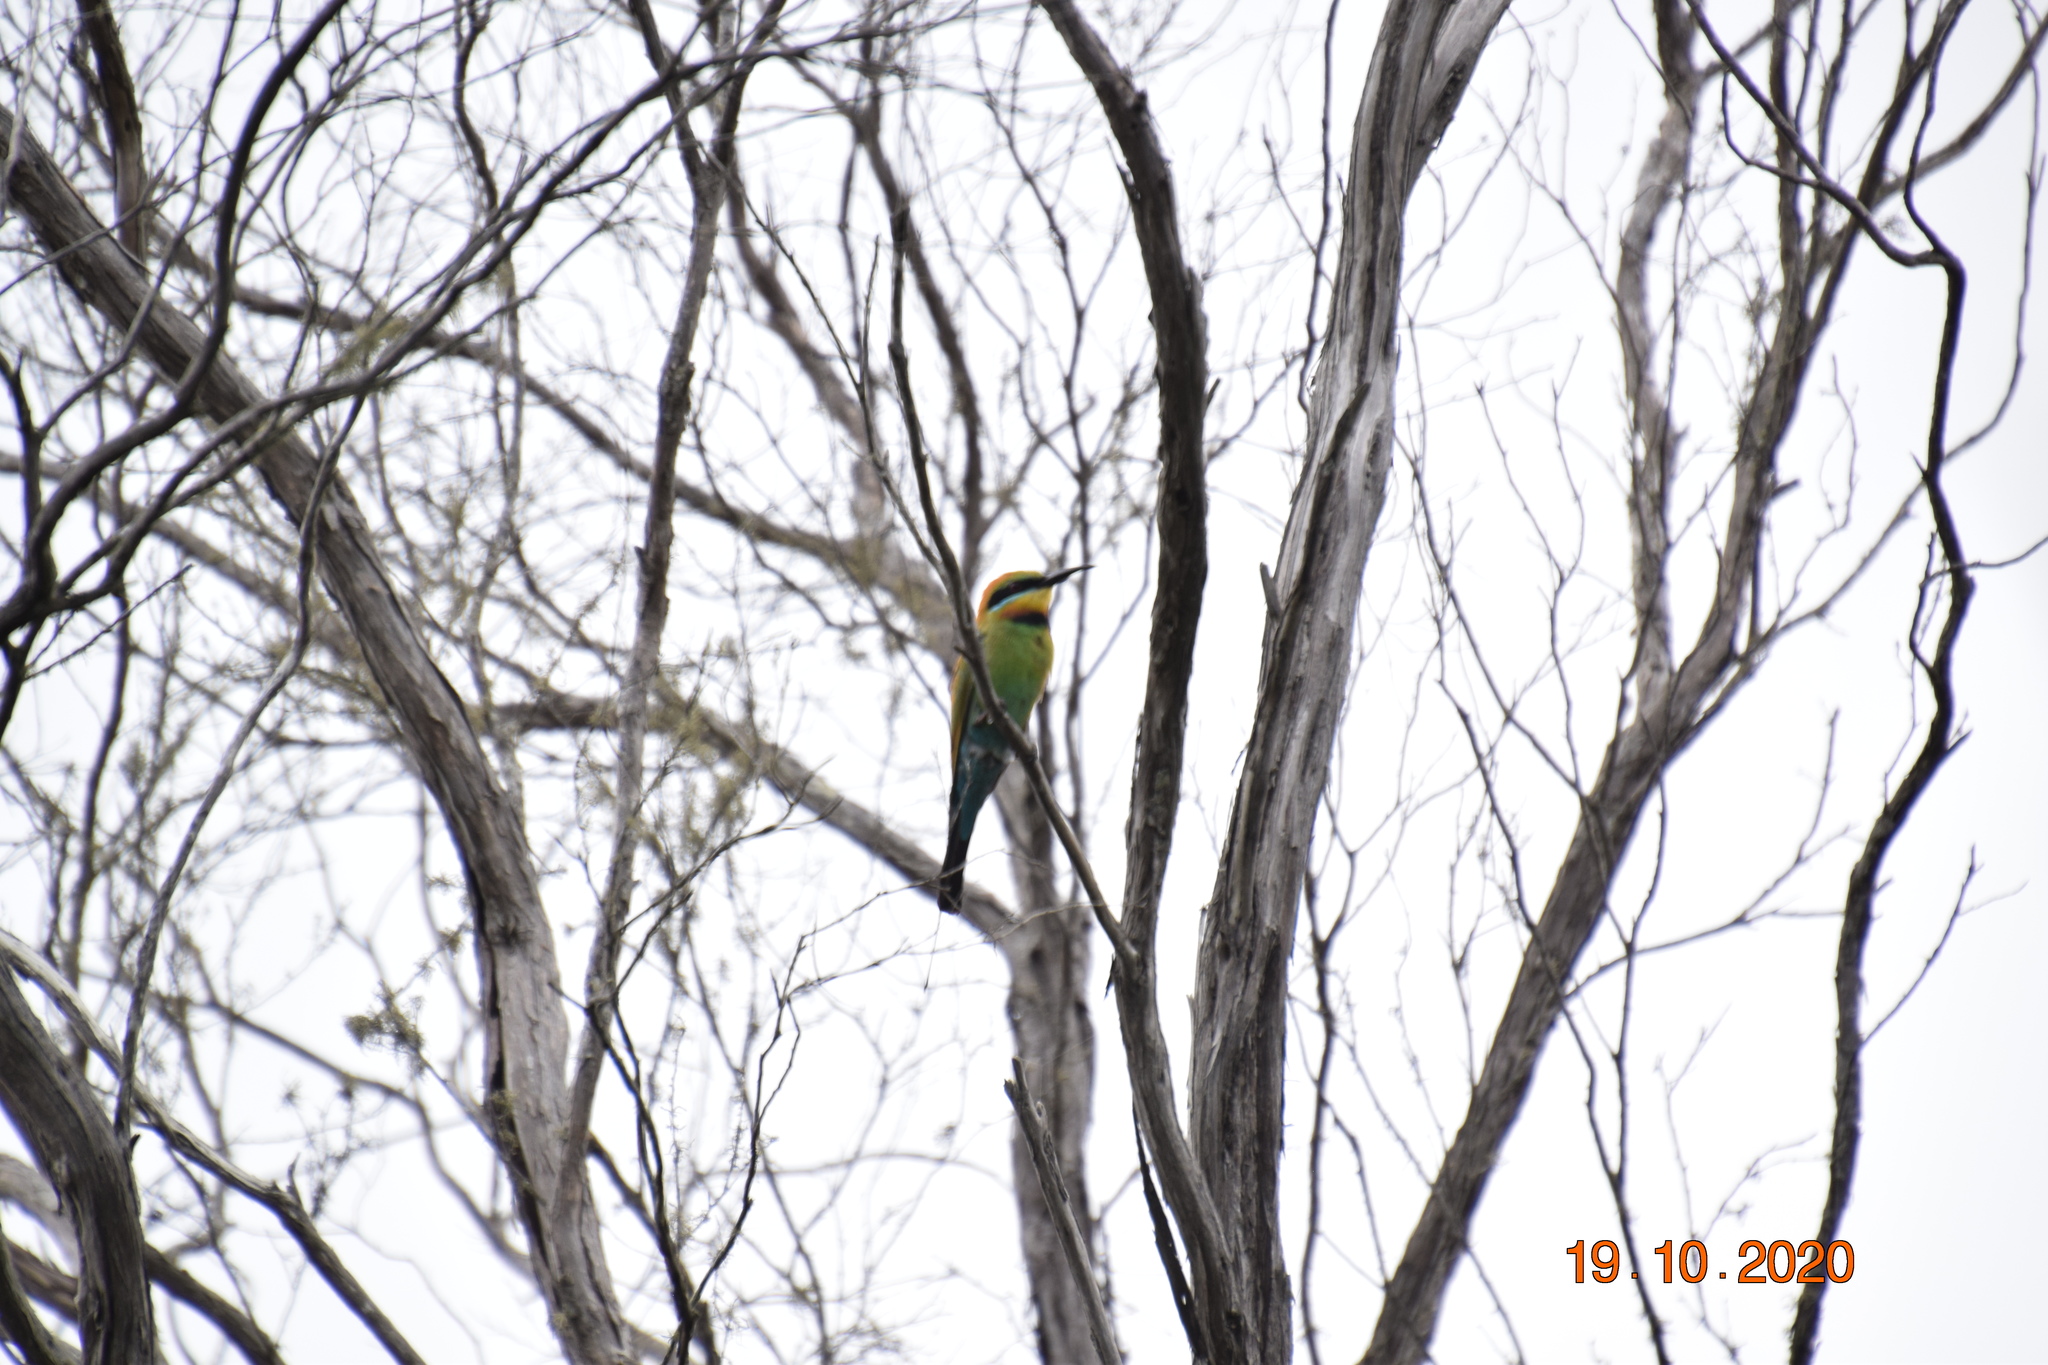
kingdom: Animalia
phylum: Chordata
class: Aves
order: Coraciiformes
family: Meropidae
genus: Merops
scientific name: Merops ornatus
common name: Rainbow bee-eater
